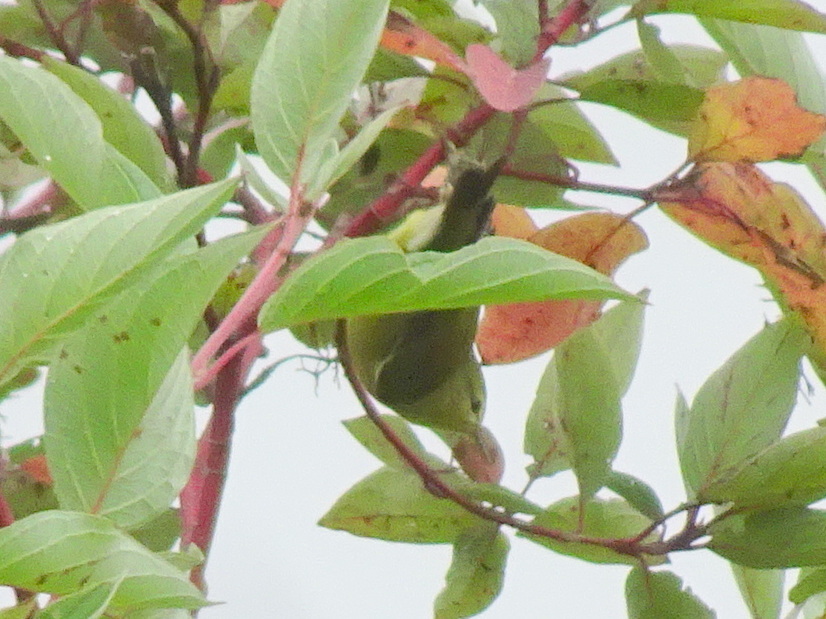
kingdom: Animalia
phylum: Chordata
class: Aves
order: Passeriformes
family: Parulidae
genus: Leiothlypis
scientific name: Leiothlypis peregrina
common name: Tennessee warbler
